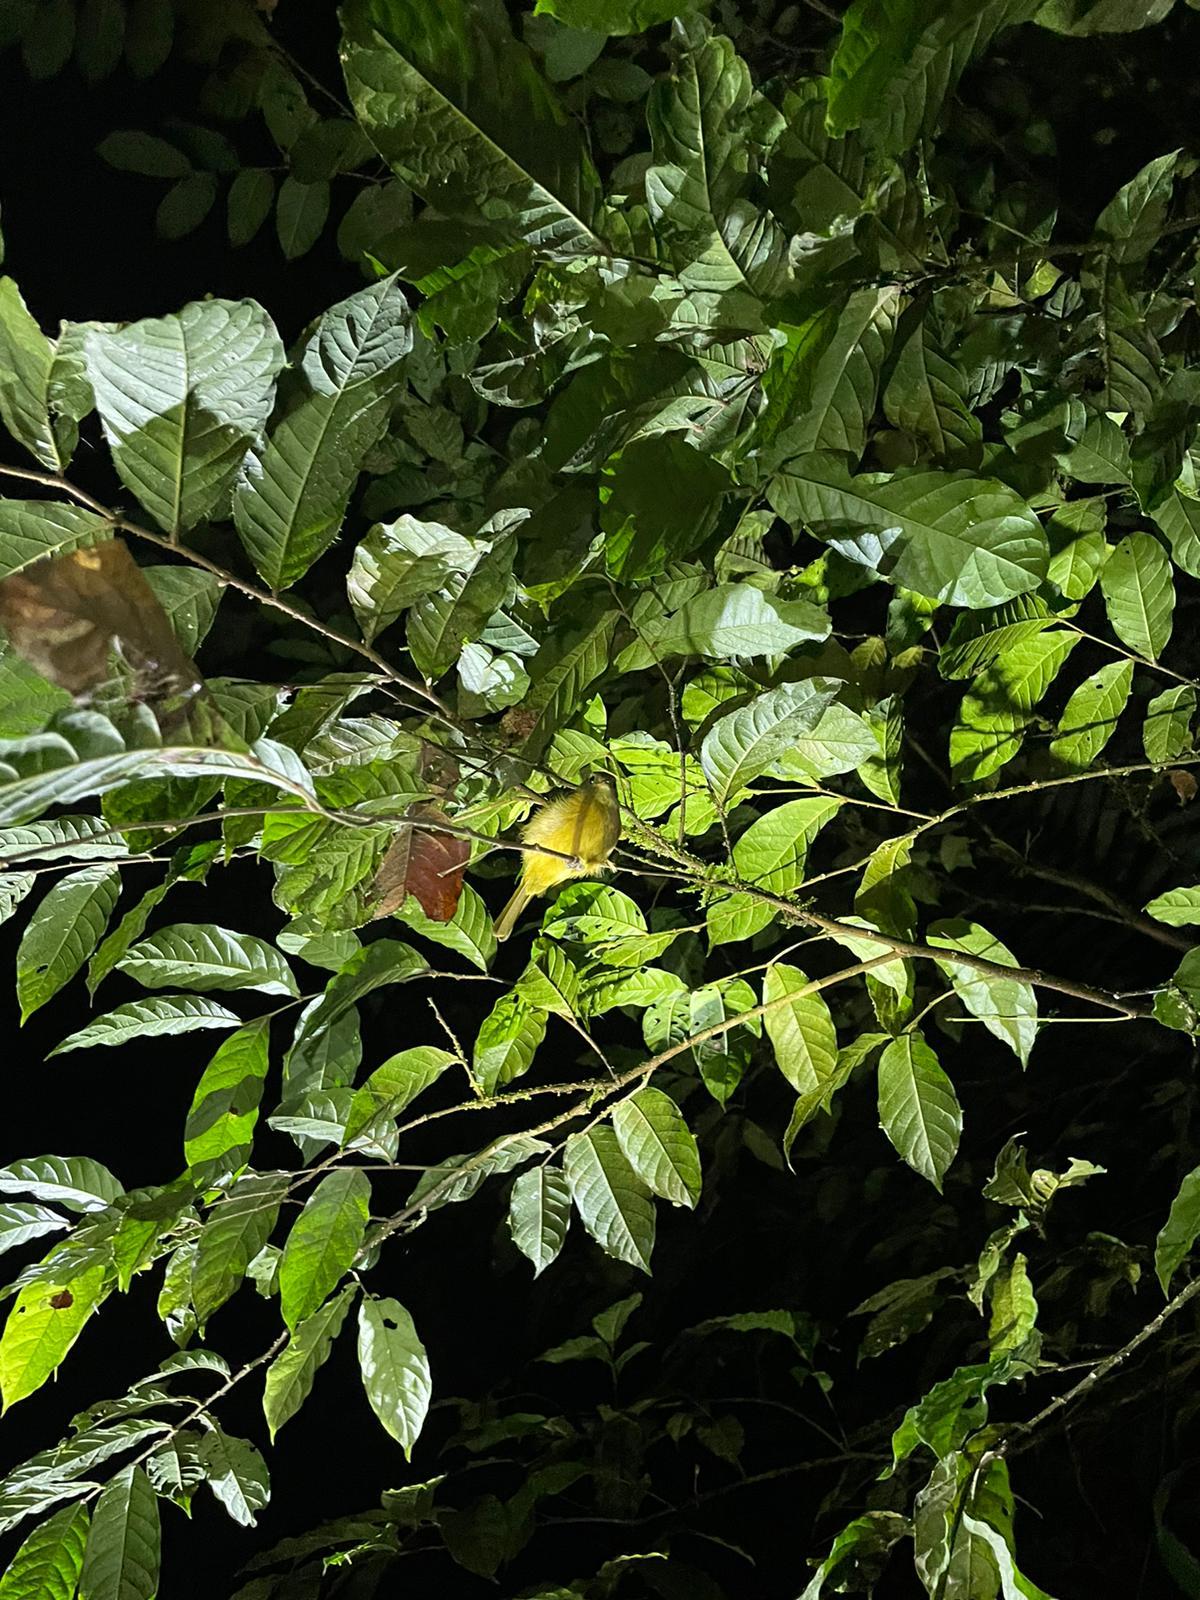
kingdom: Animalia
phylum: Chordata
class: Aves
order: Passeriformes
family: Tyrannidae
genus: Mionectes
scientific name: Mionectes oleagineus
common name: Ochre-bellied flycatcher
